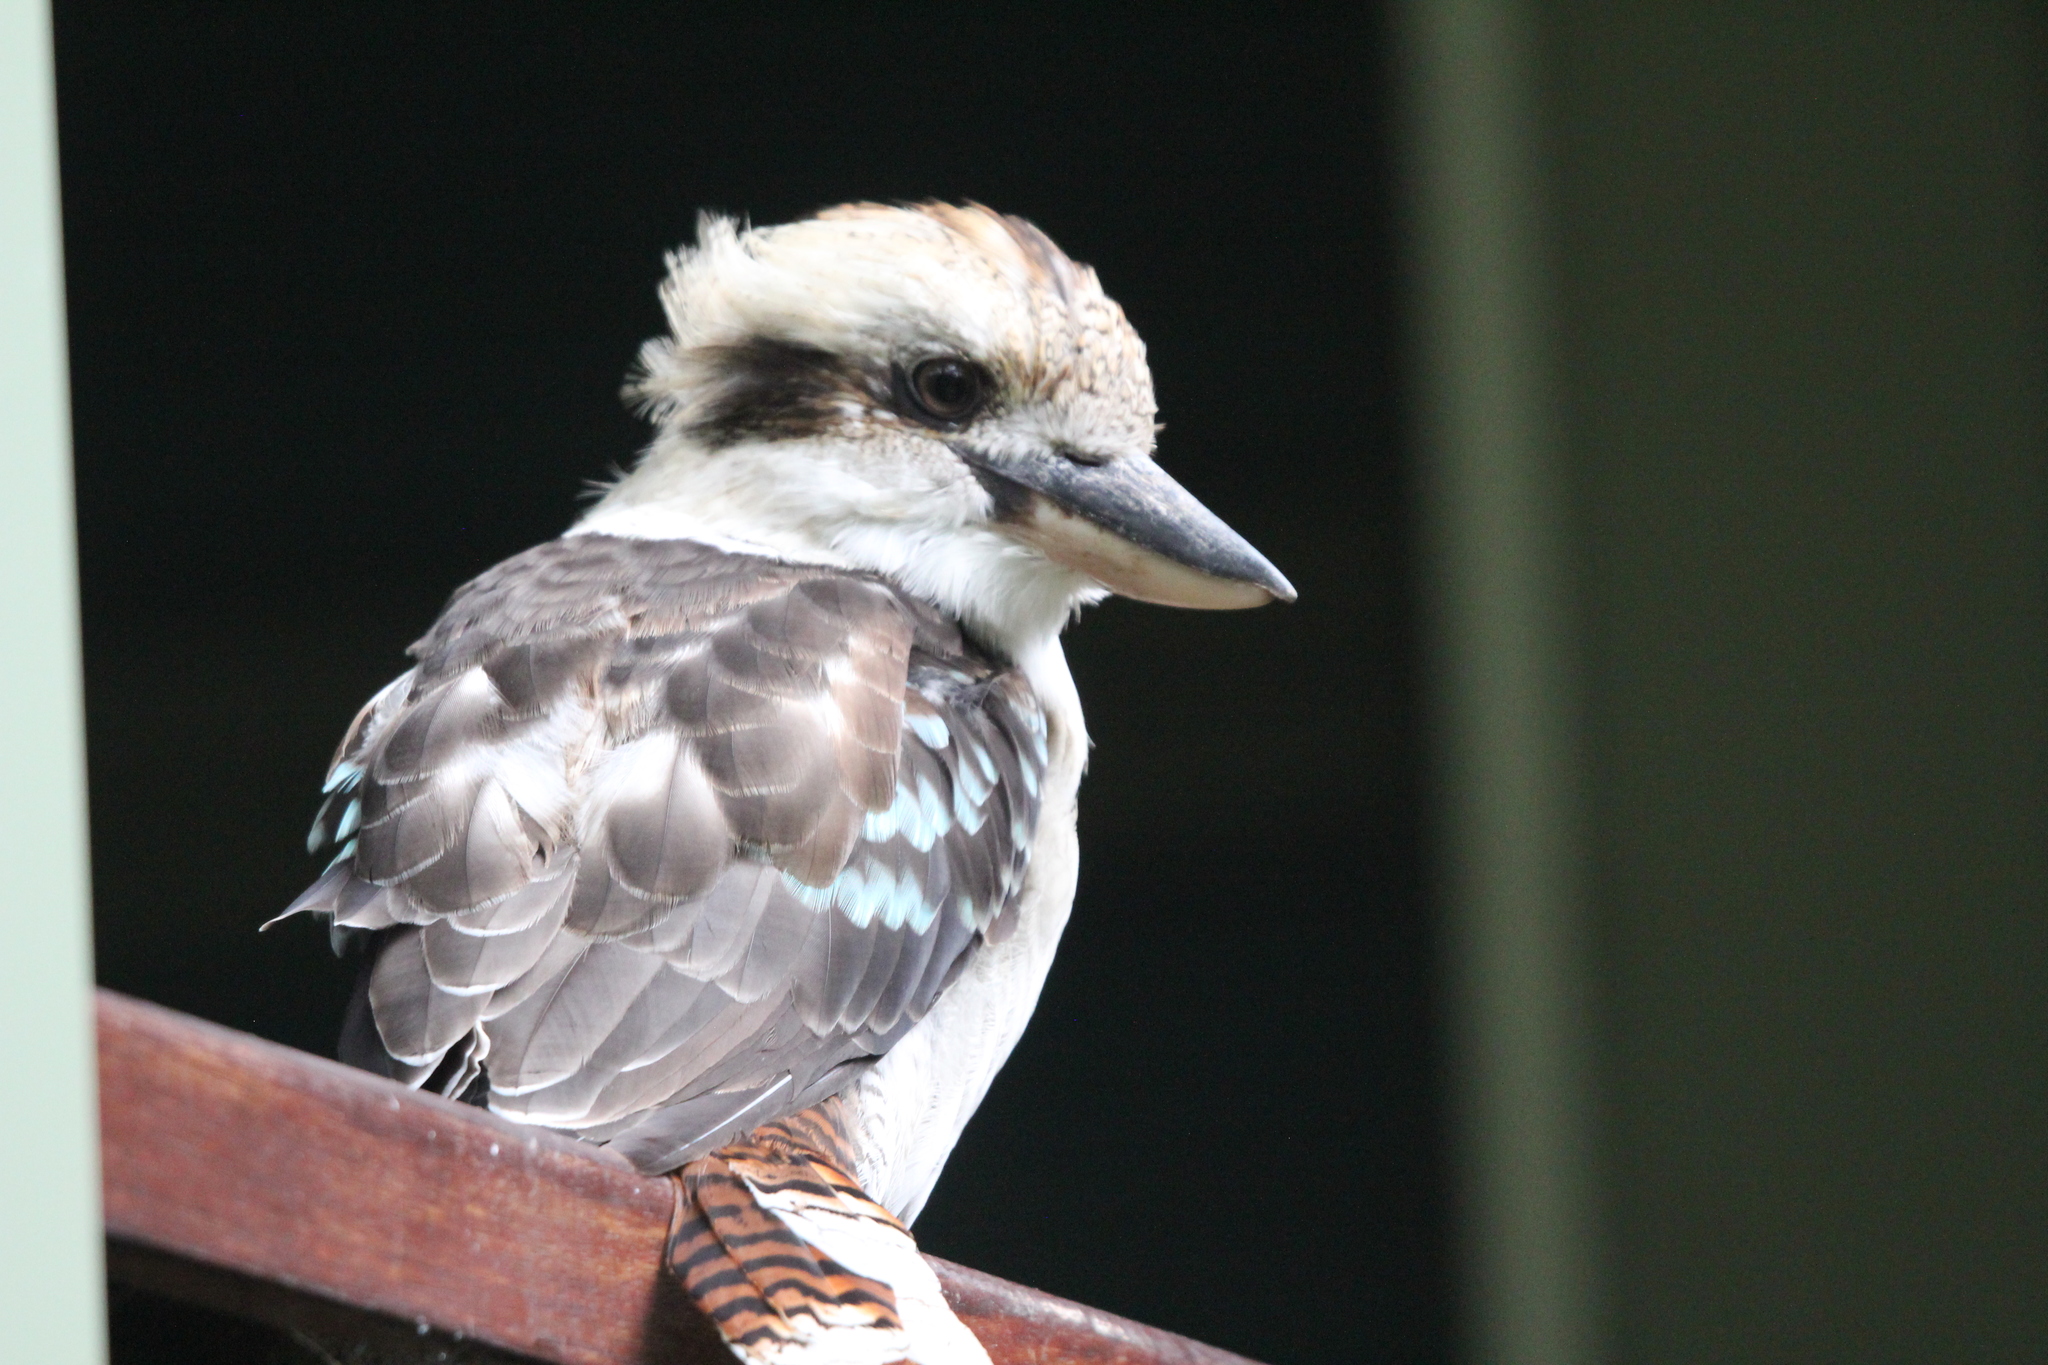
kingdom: Animalia
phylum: Chordata
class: Aves
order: Coraciiformes
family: Alcedinidae
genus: Dacelo
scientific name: Dacelo novaeguineae
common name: Laughing kookaburra
